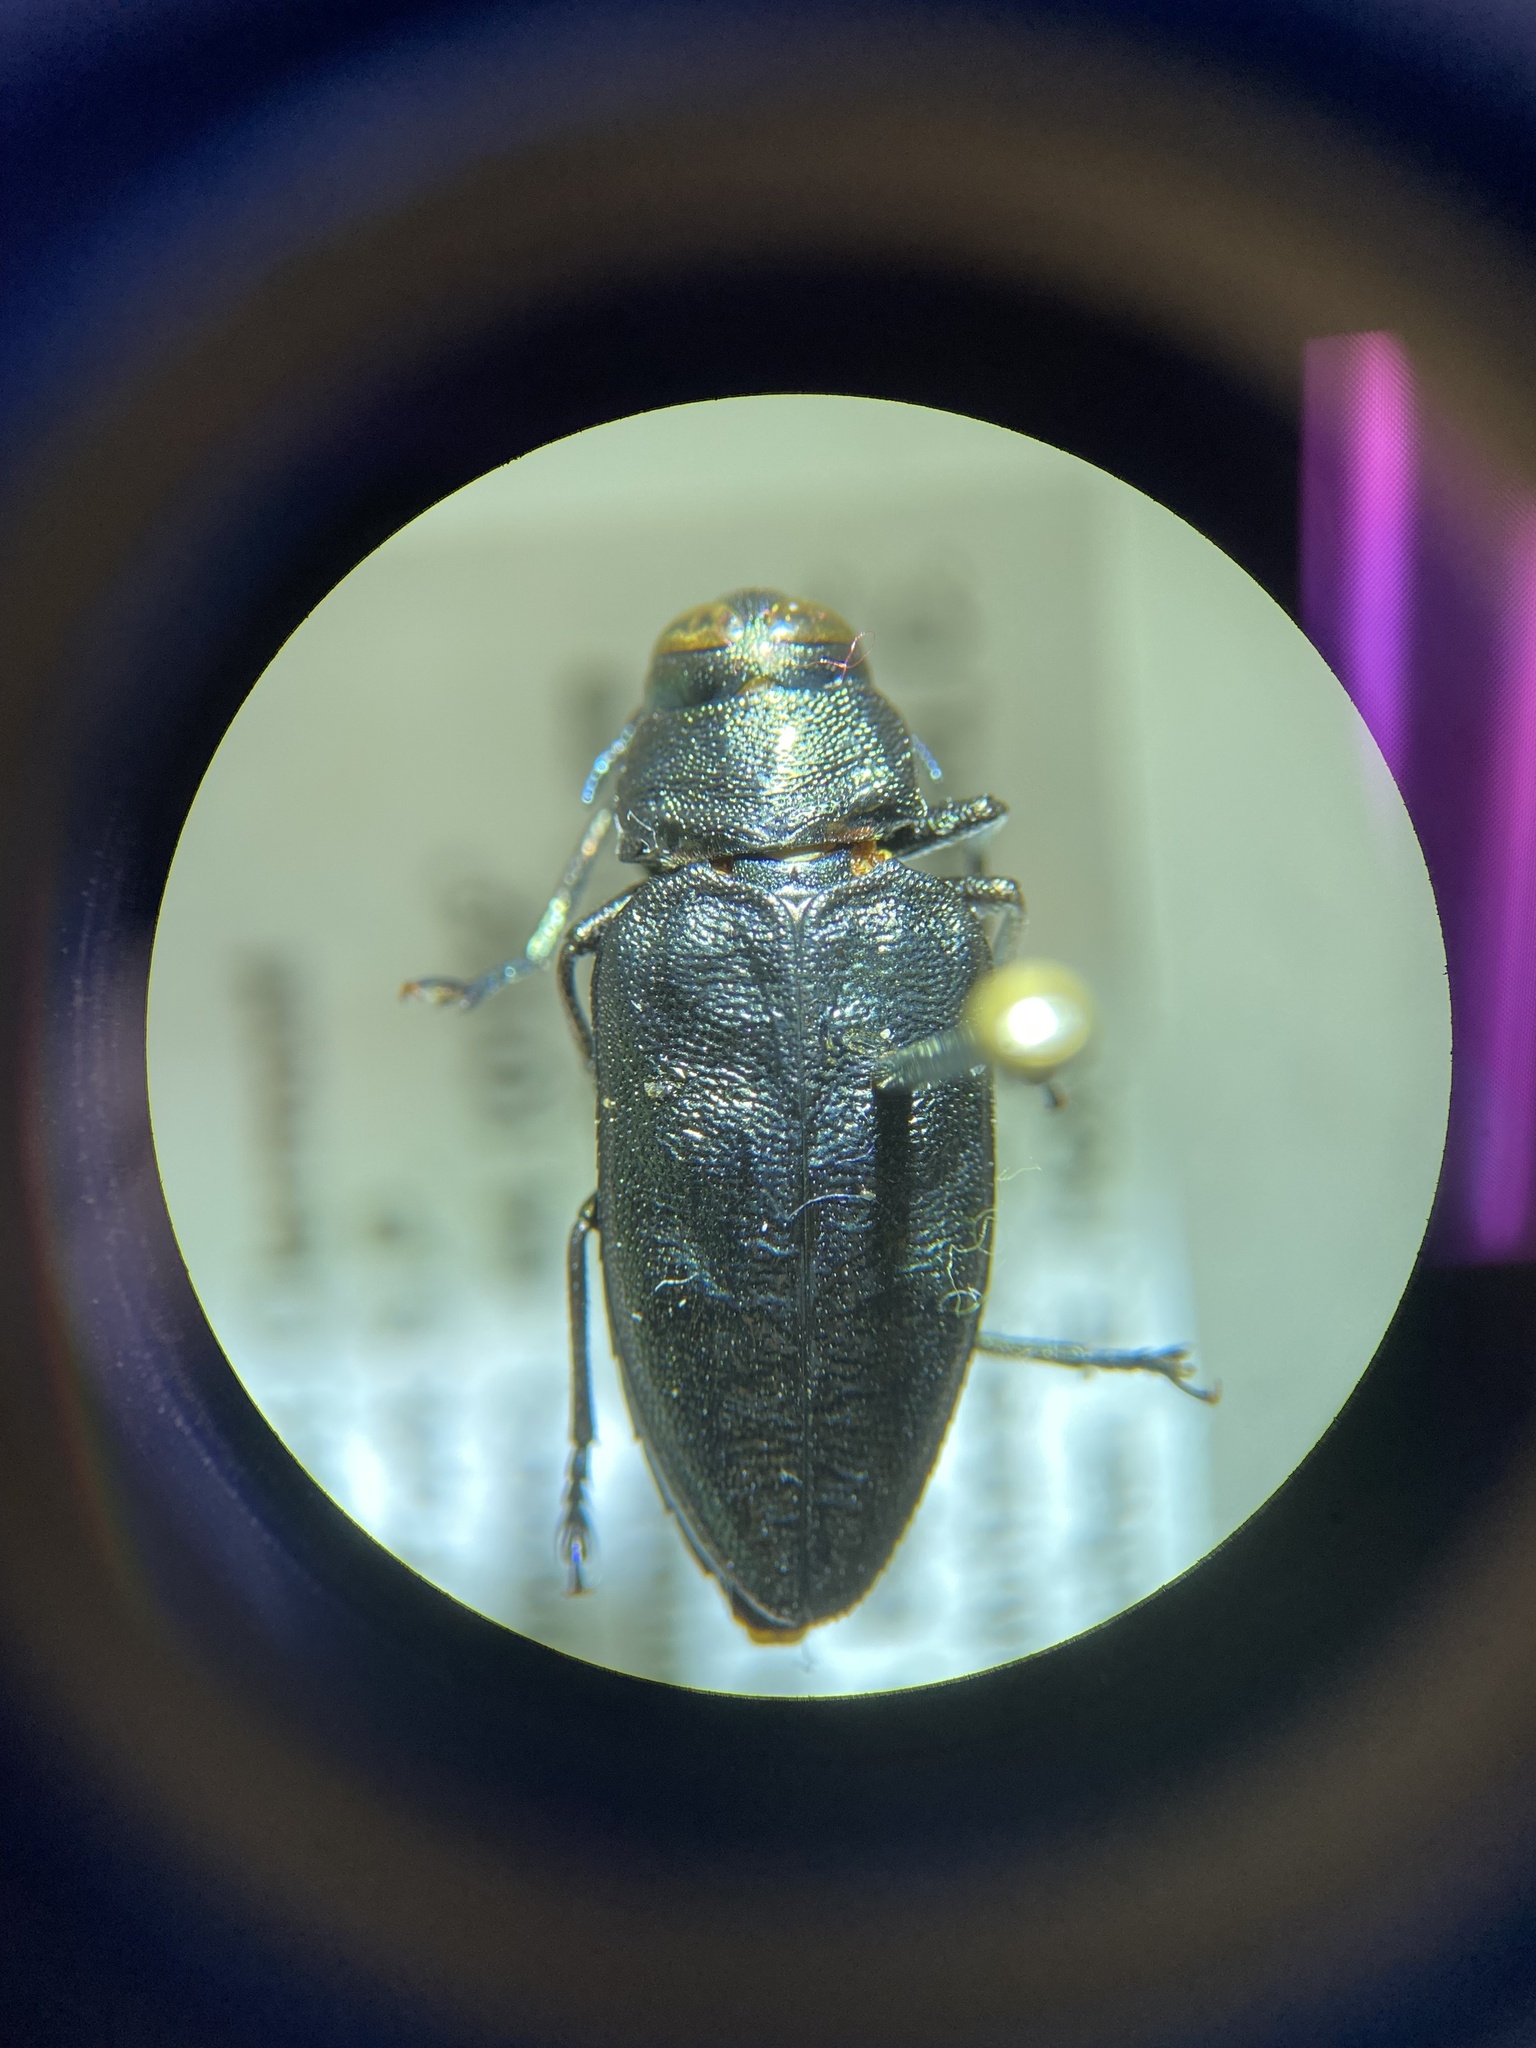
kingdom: Animalia
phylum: Arthropoda
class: Insecta
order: Coleoptera
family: Buprestidae
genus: Actenodes
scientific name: Actenodes acornis
